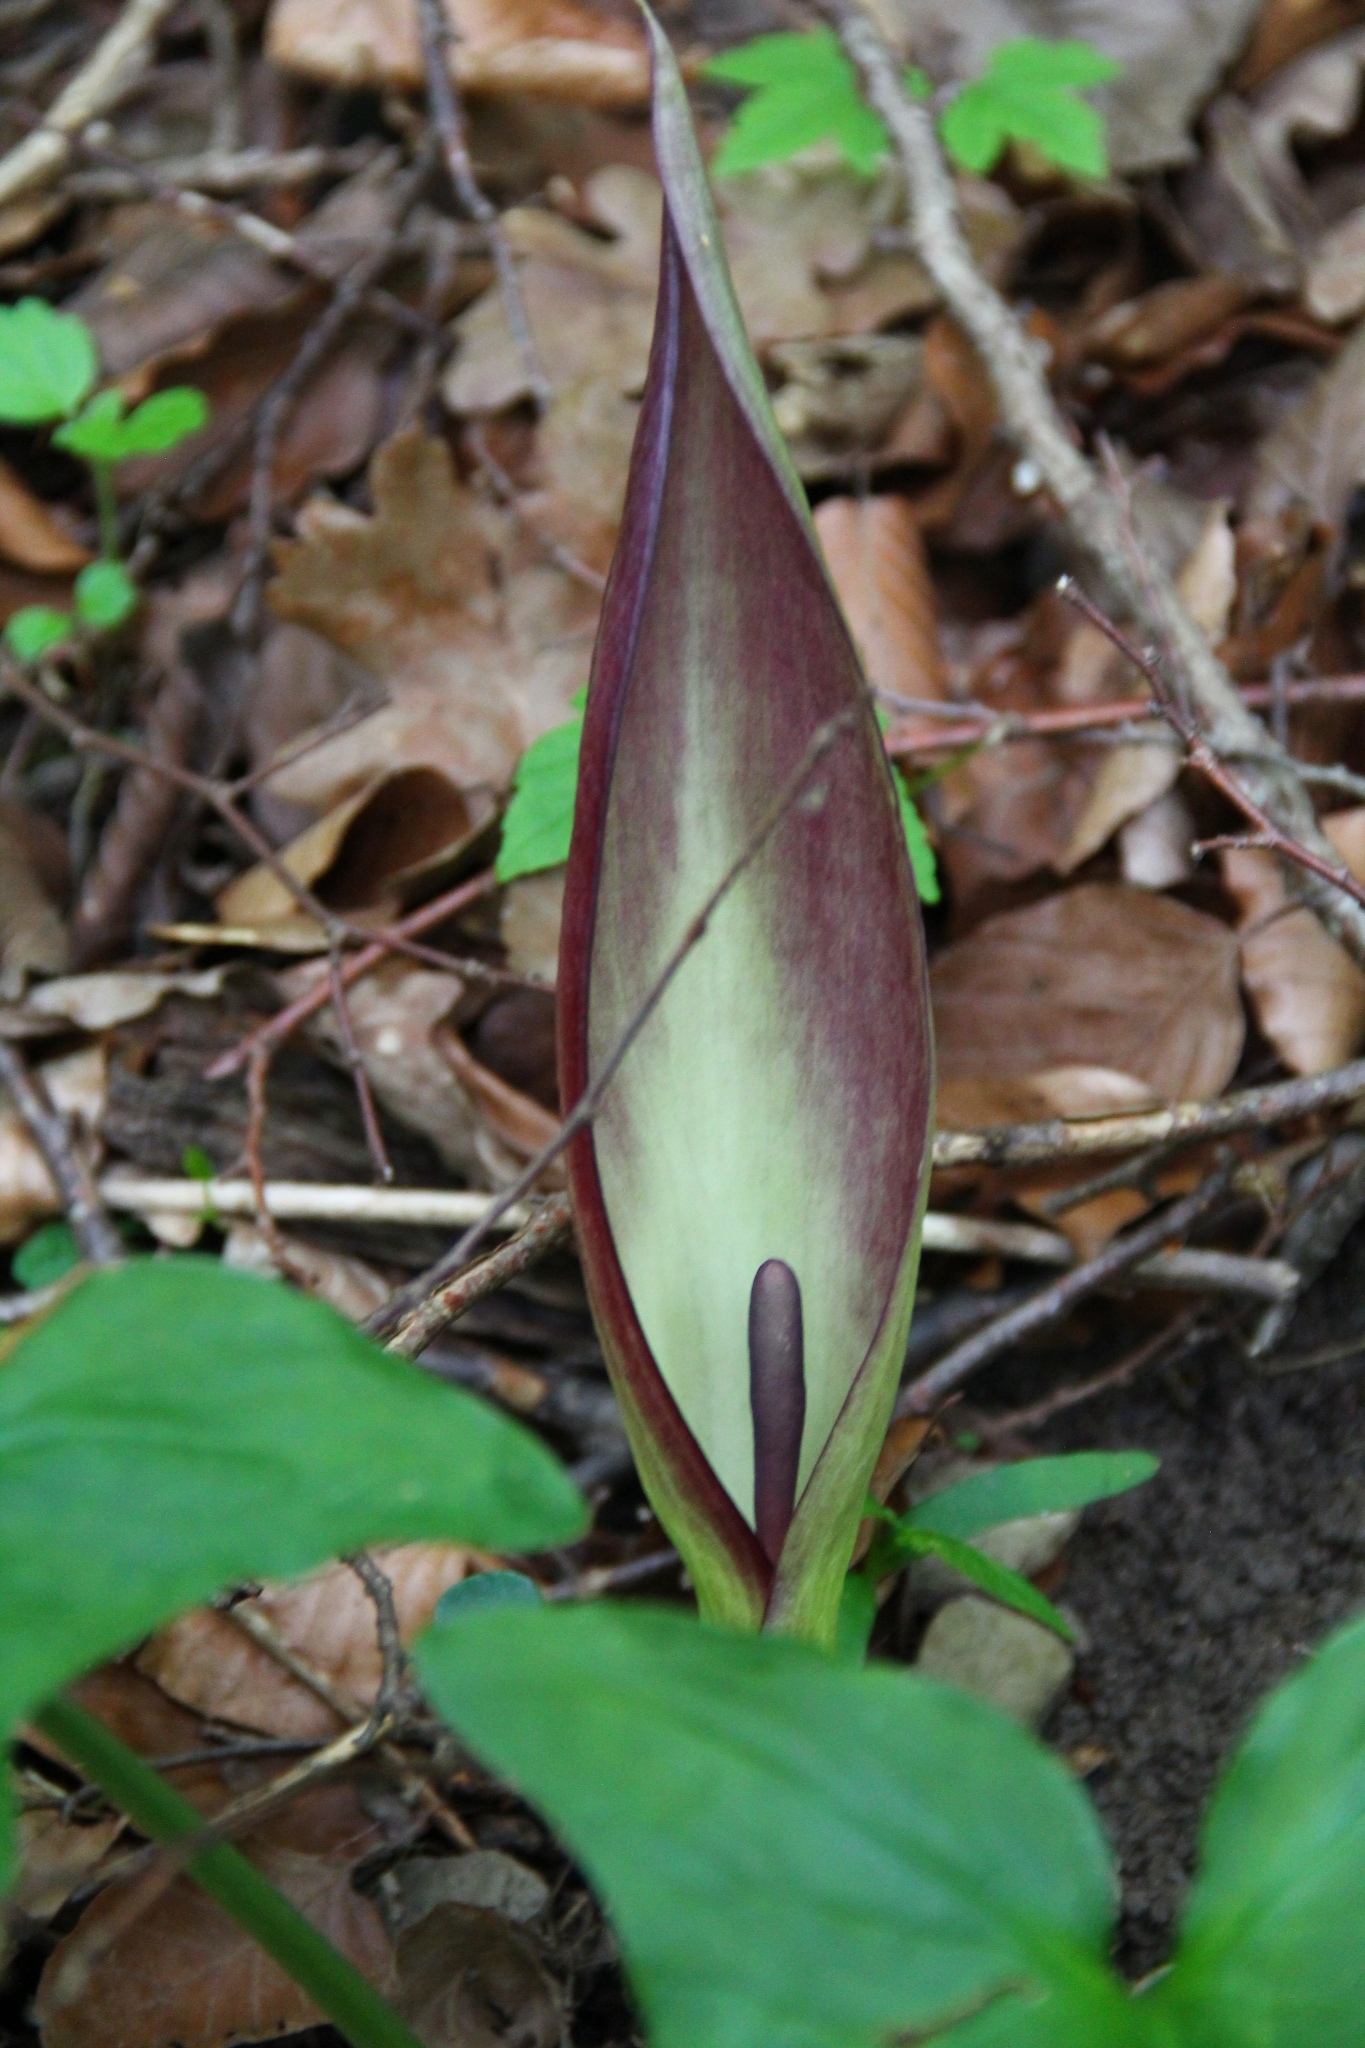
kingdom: Plantae
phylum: Tracheophyta
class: Liliopsida
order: Alismatales
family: Araceae
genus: Arum
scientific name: Arum maculatum
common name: Lords-and-ladies
